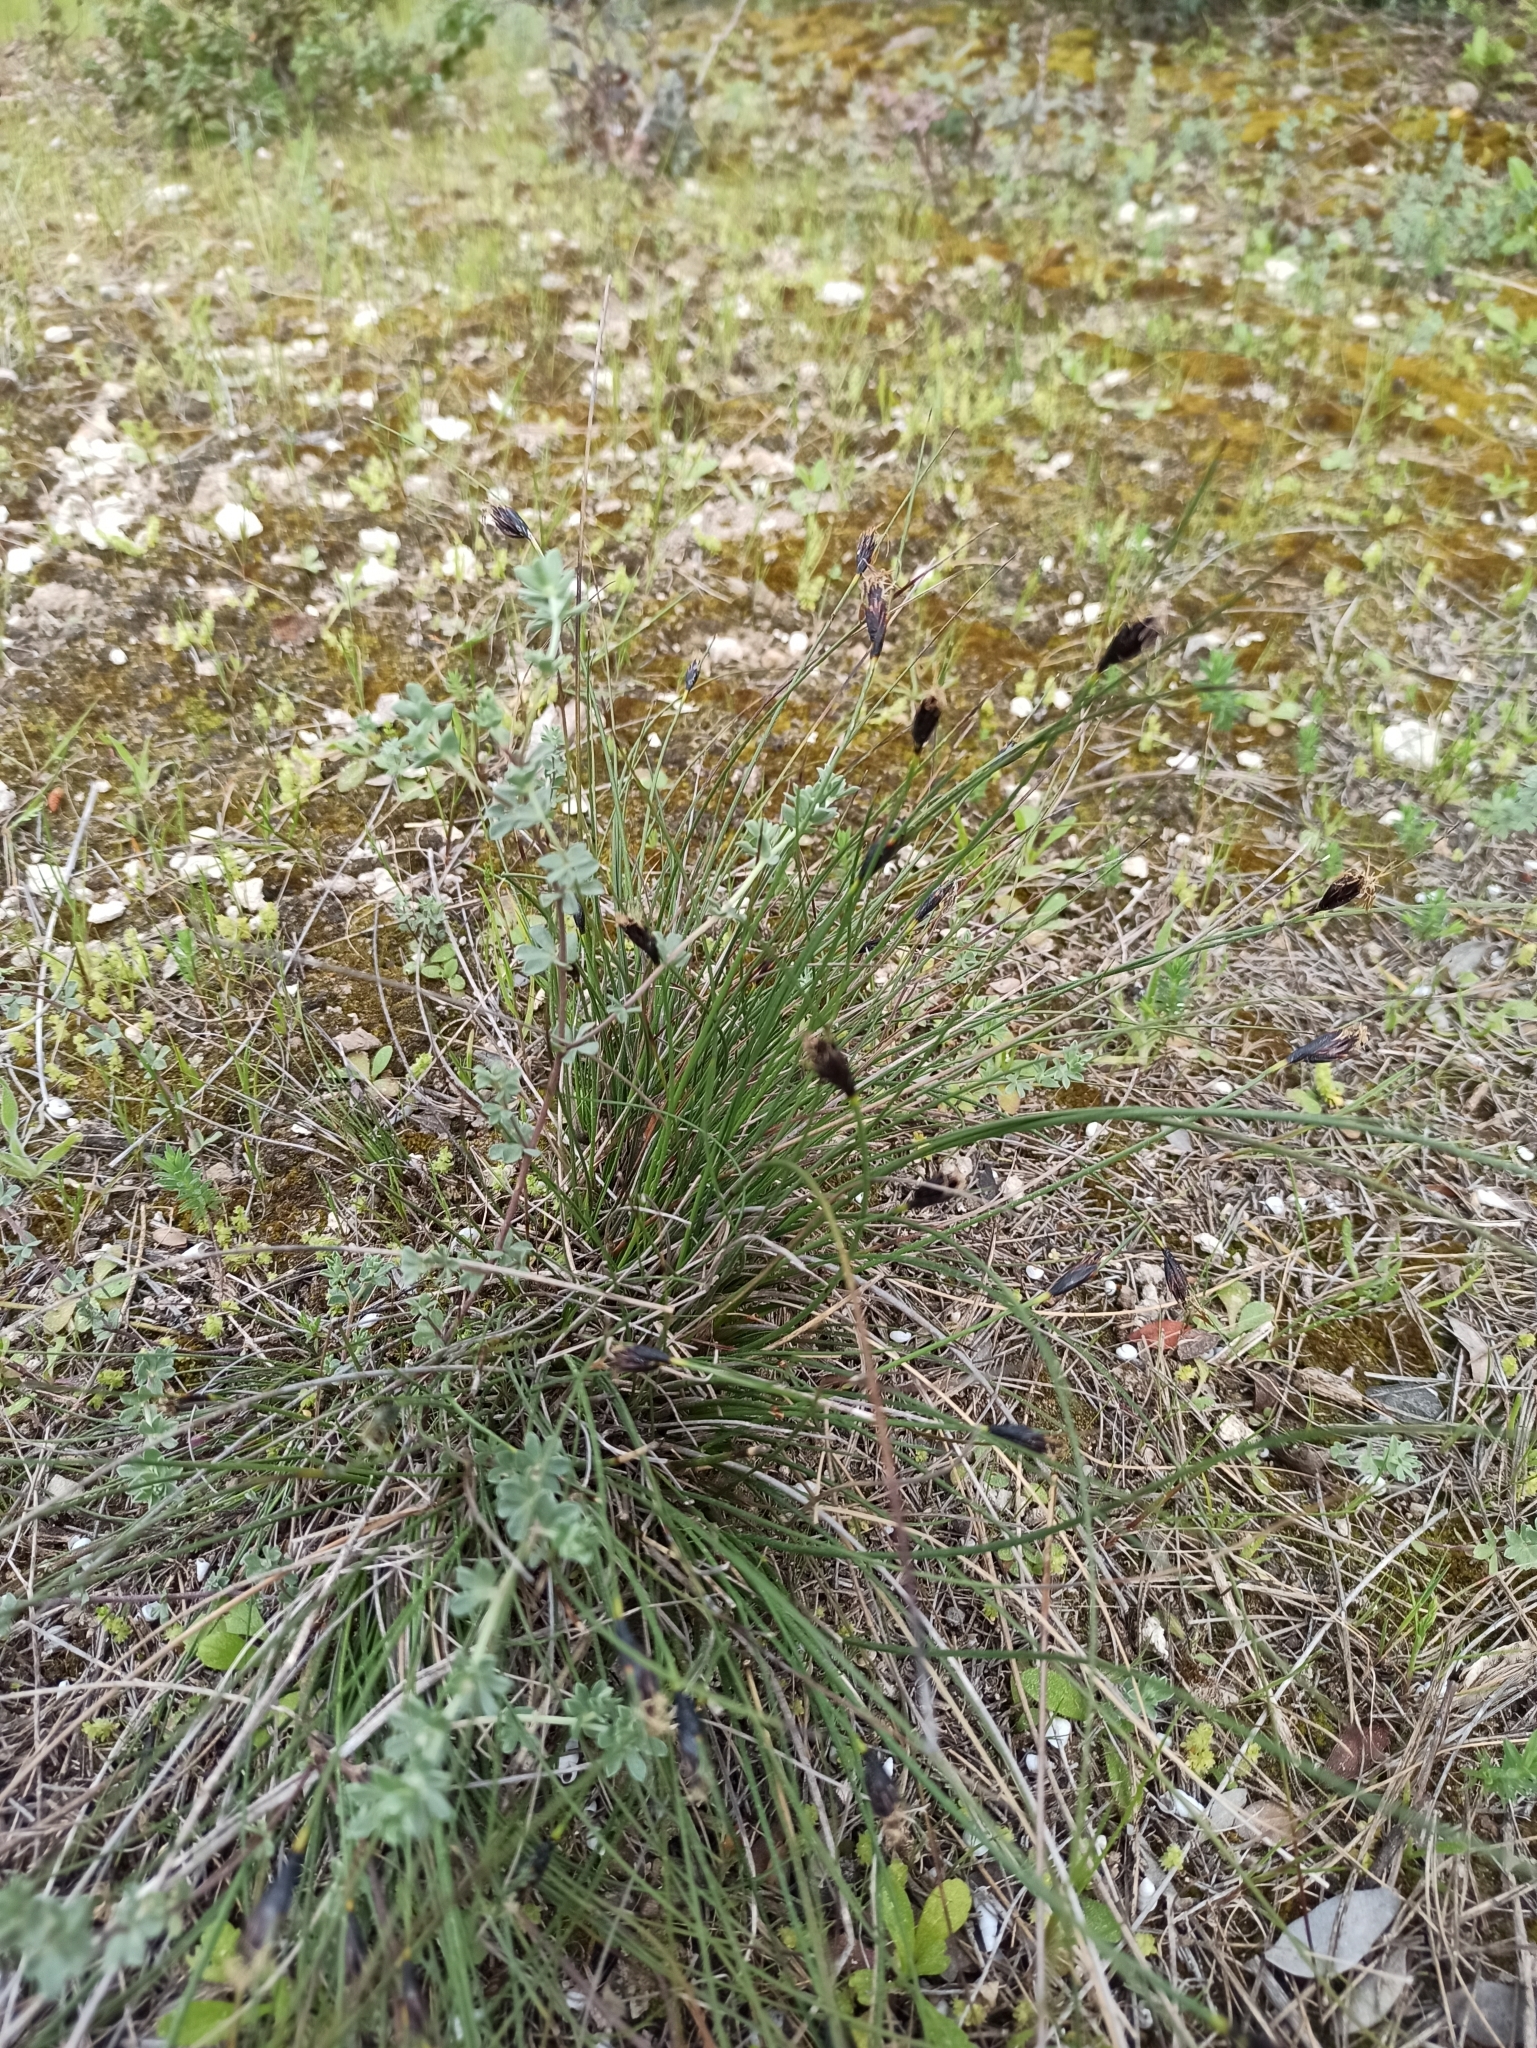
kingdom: Plantae
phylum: Tracheophyta
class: Liliopsida
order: Poales
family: Cyperaceae
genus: Schoenus
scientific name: Schoenus nigricans
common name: Black bog-rush
